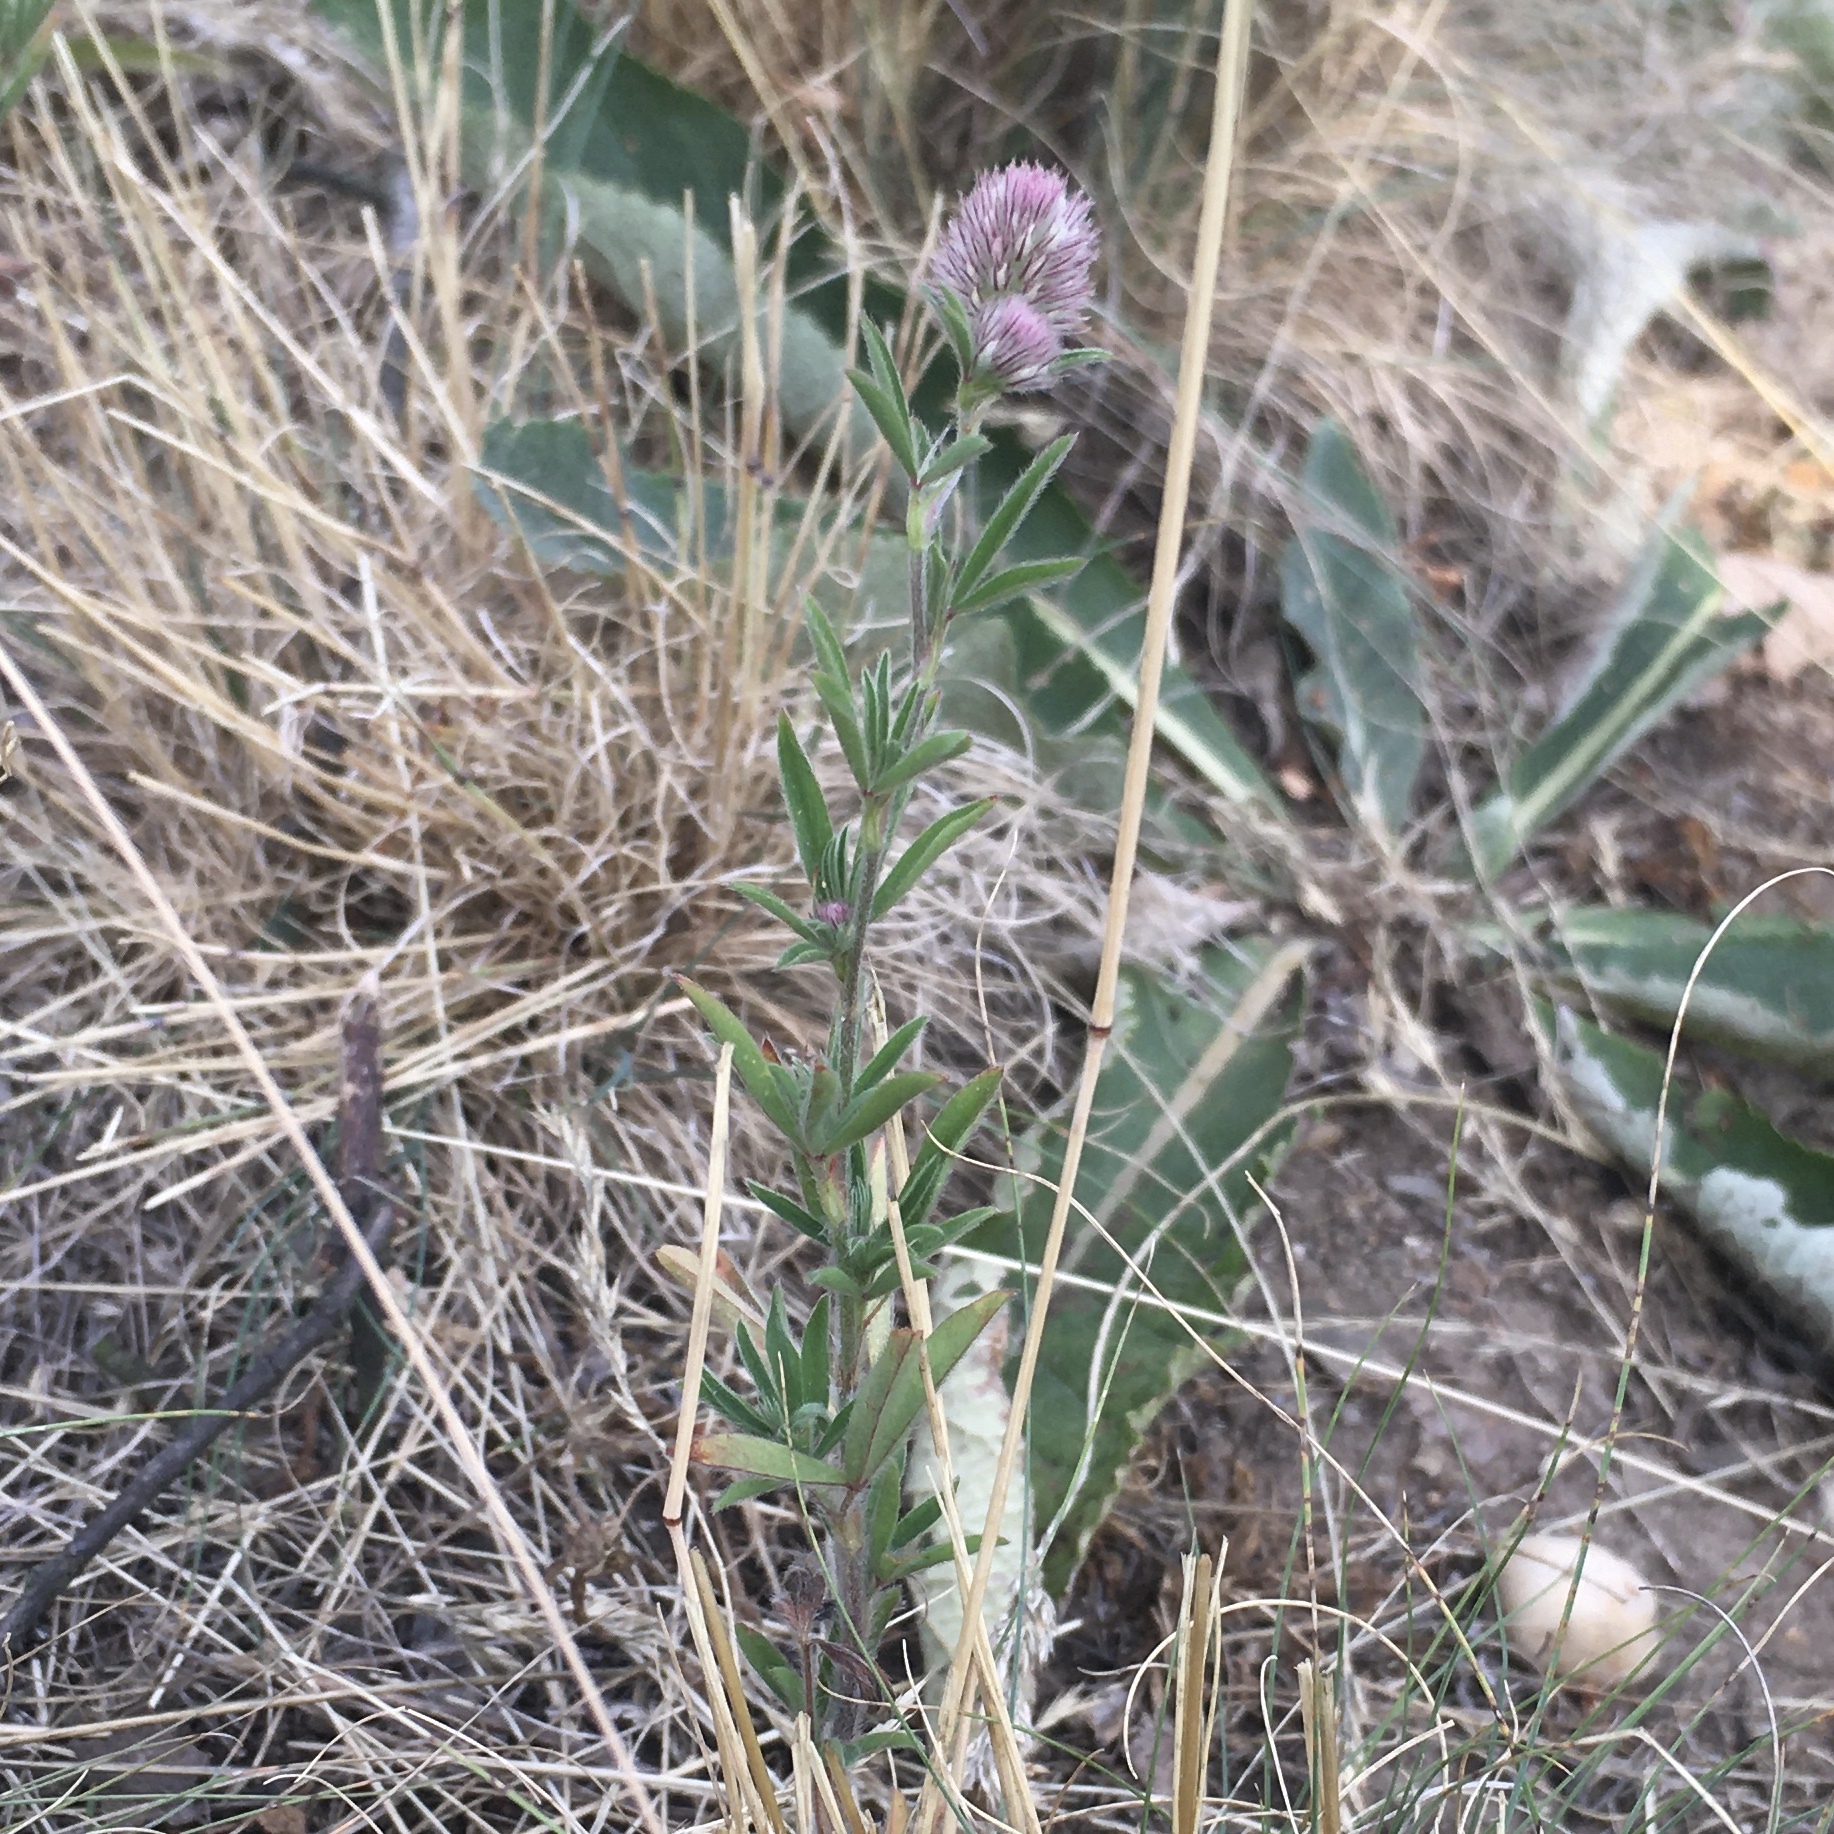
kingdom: Plantae
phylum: Tracheophyta
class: Magnoliopsida
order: Fabales
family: Fabaceae
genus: Trifolium
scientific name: Trifolium arvense
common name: Hare's-foot clover
